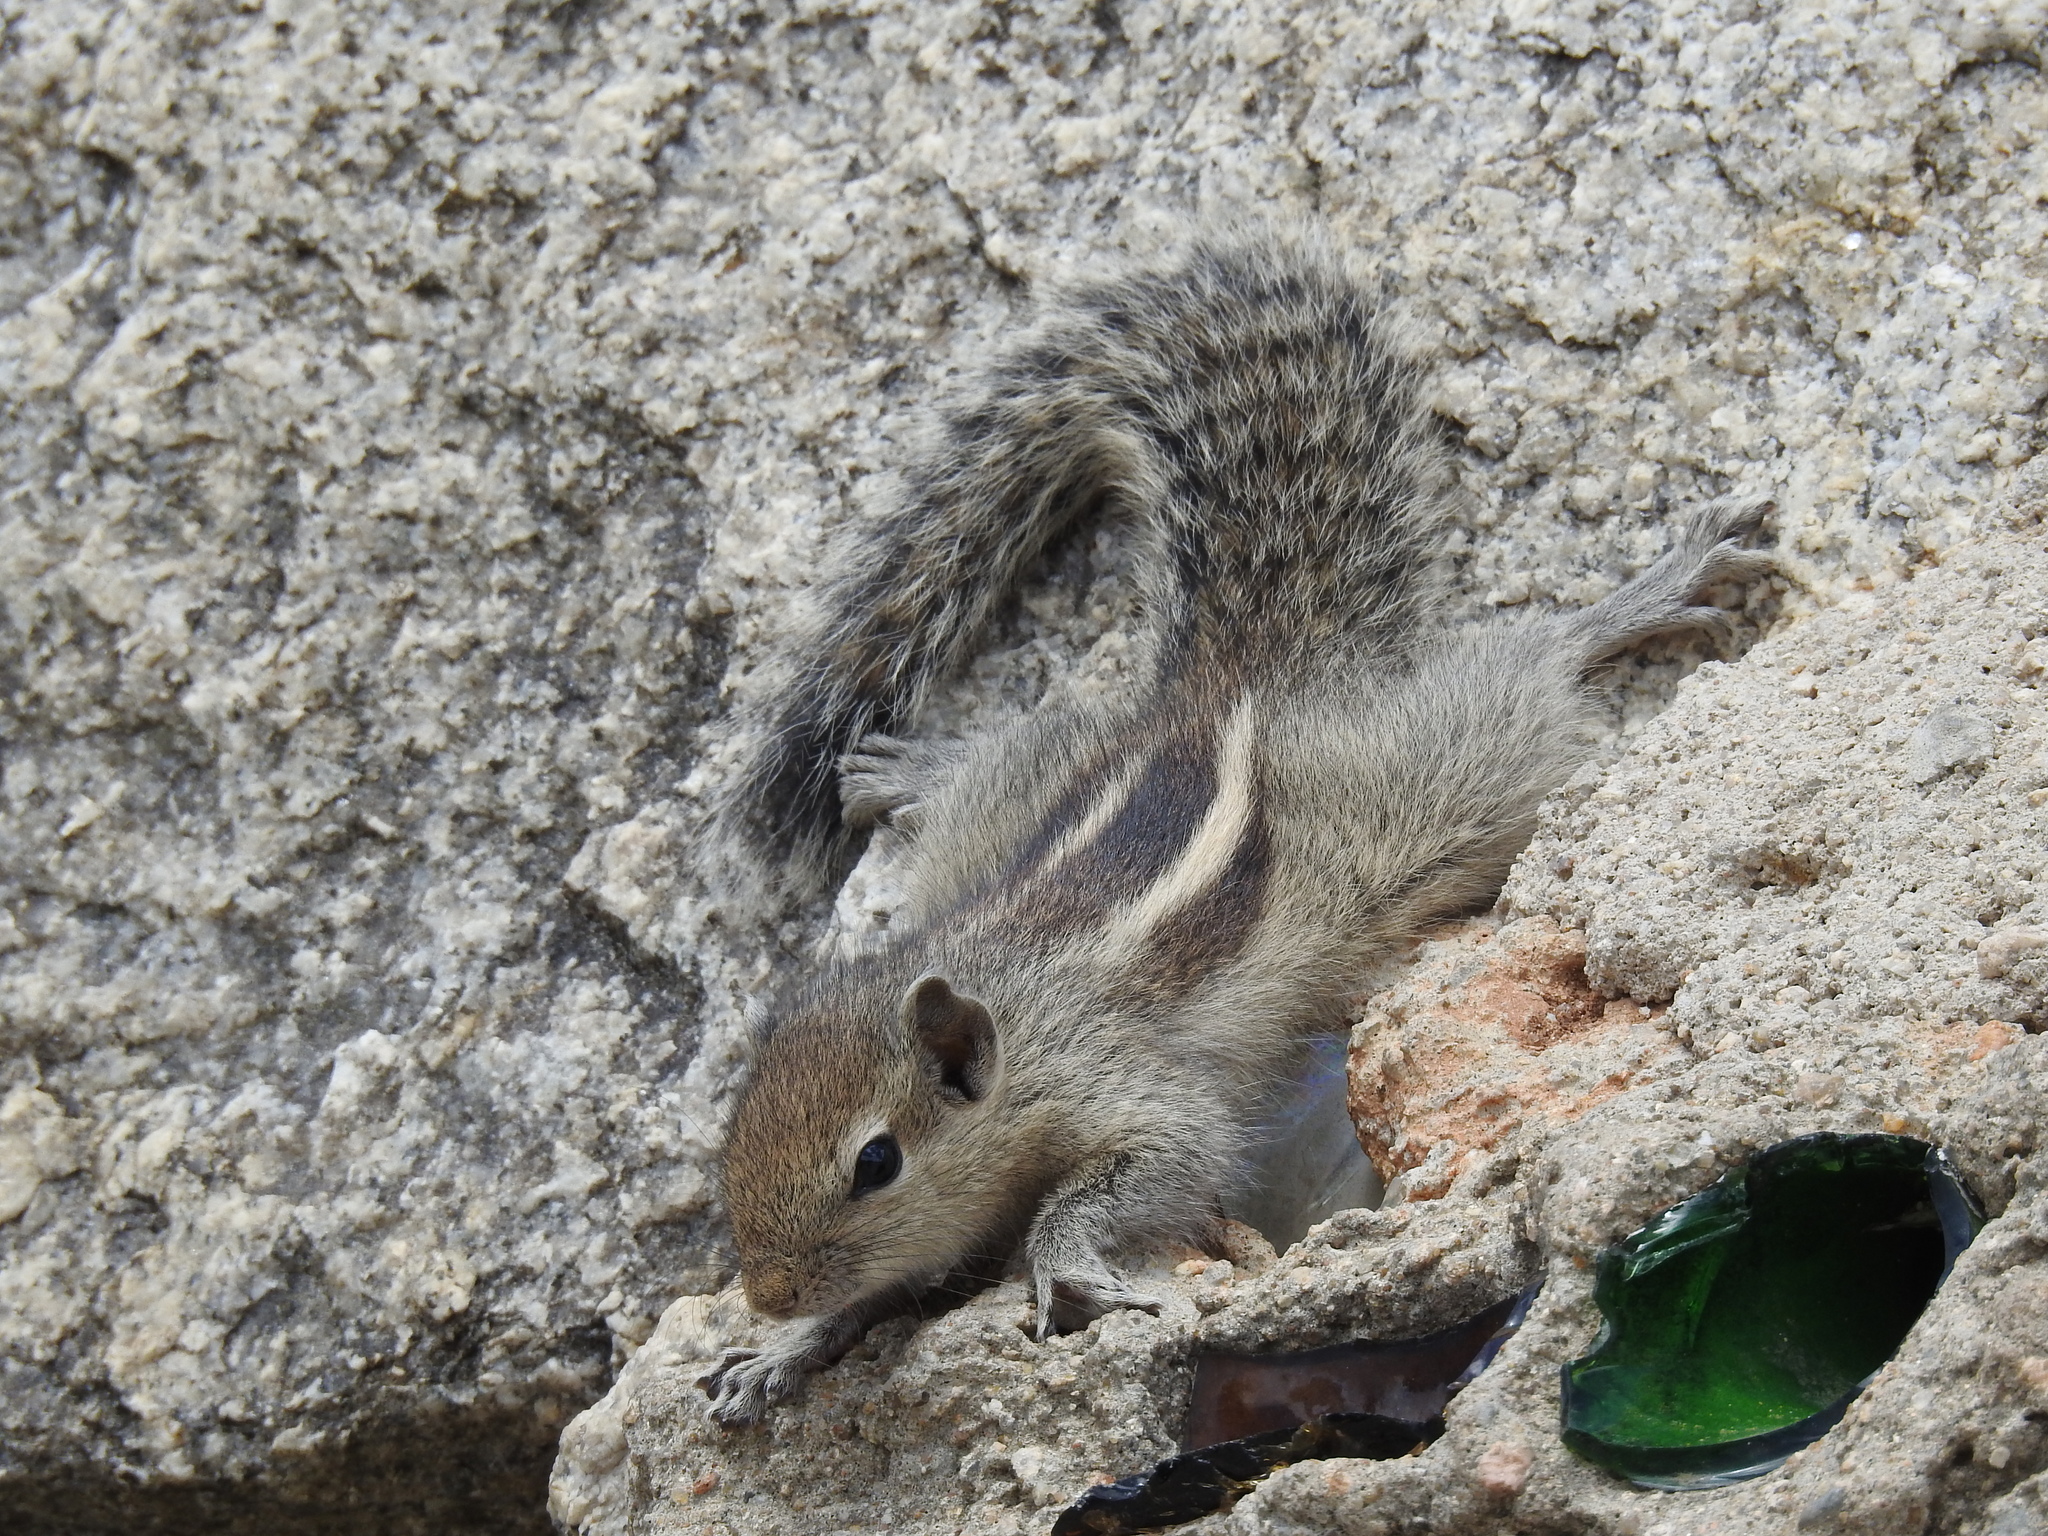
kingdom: Animalia
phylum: Chordata
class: Mammalia
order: Rodentia
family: Sciuridae
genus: Funambulus
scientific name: Funambulus palmarum
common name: Indian palm squirrel
